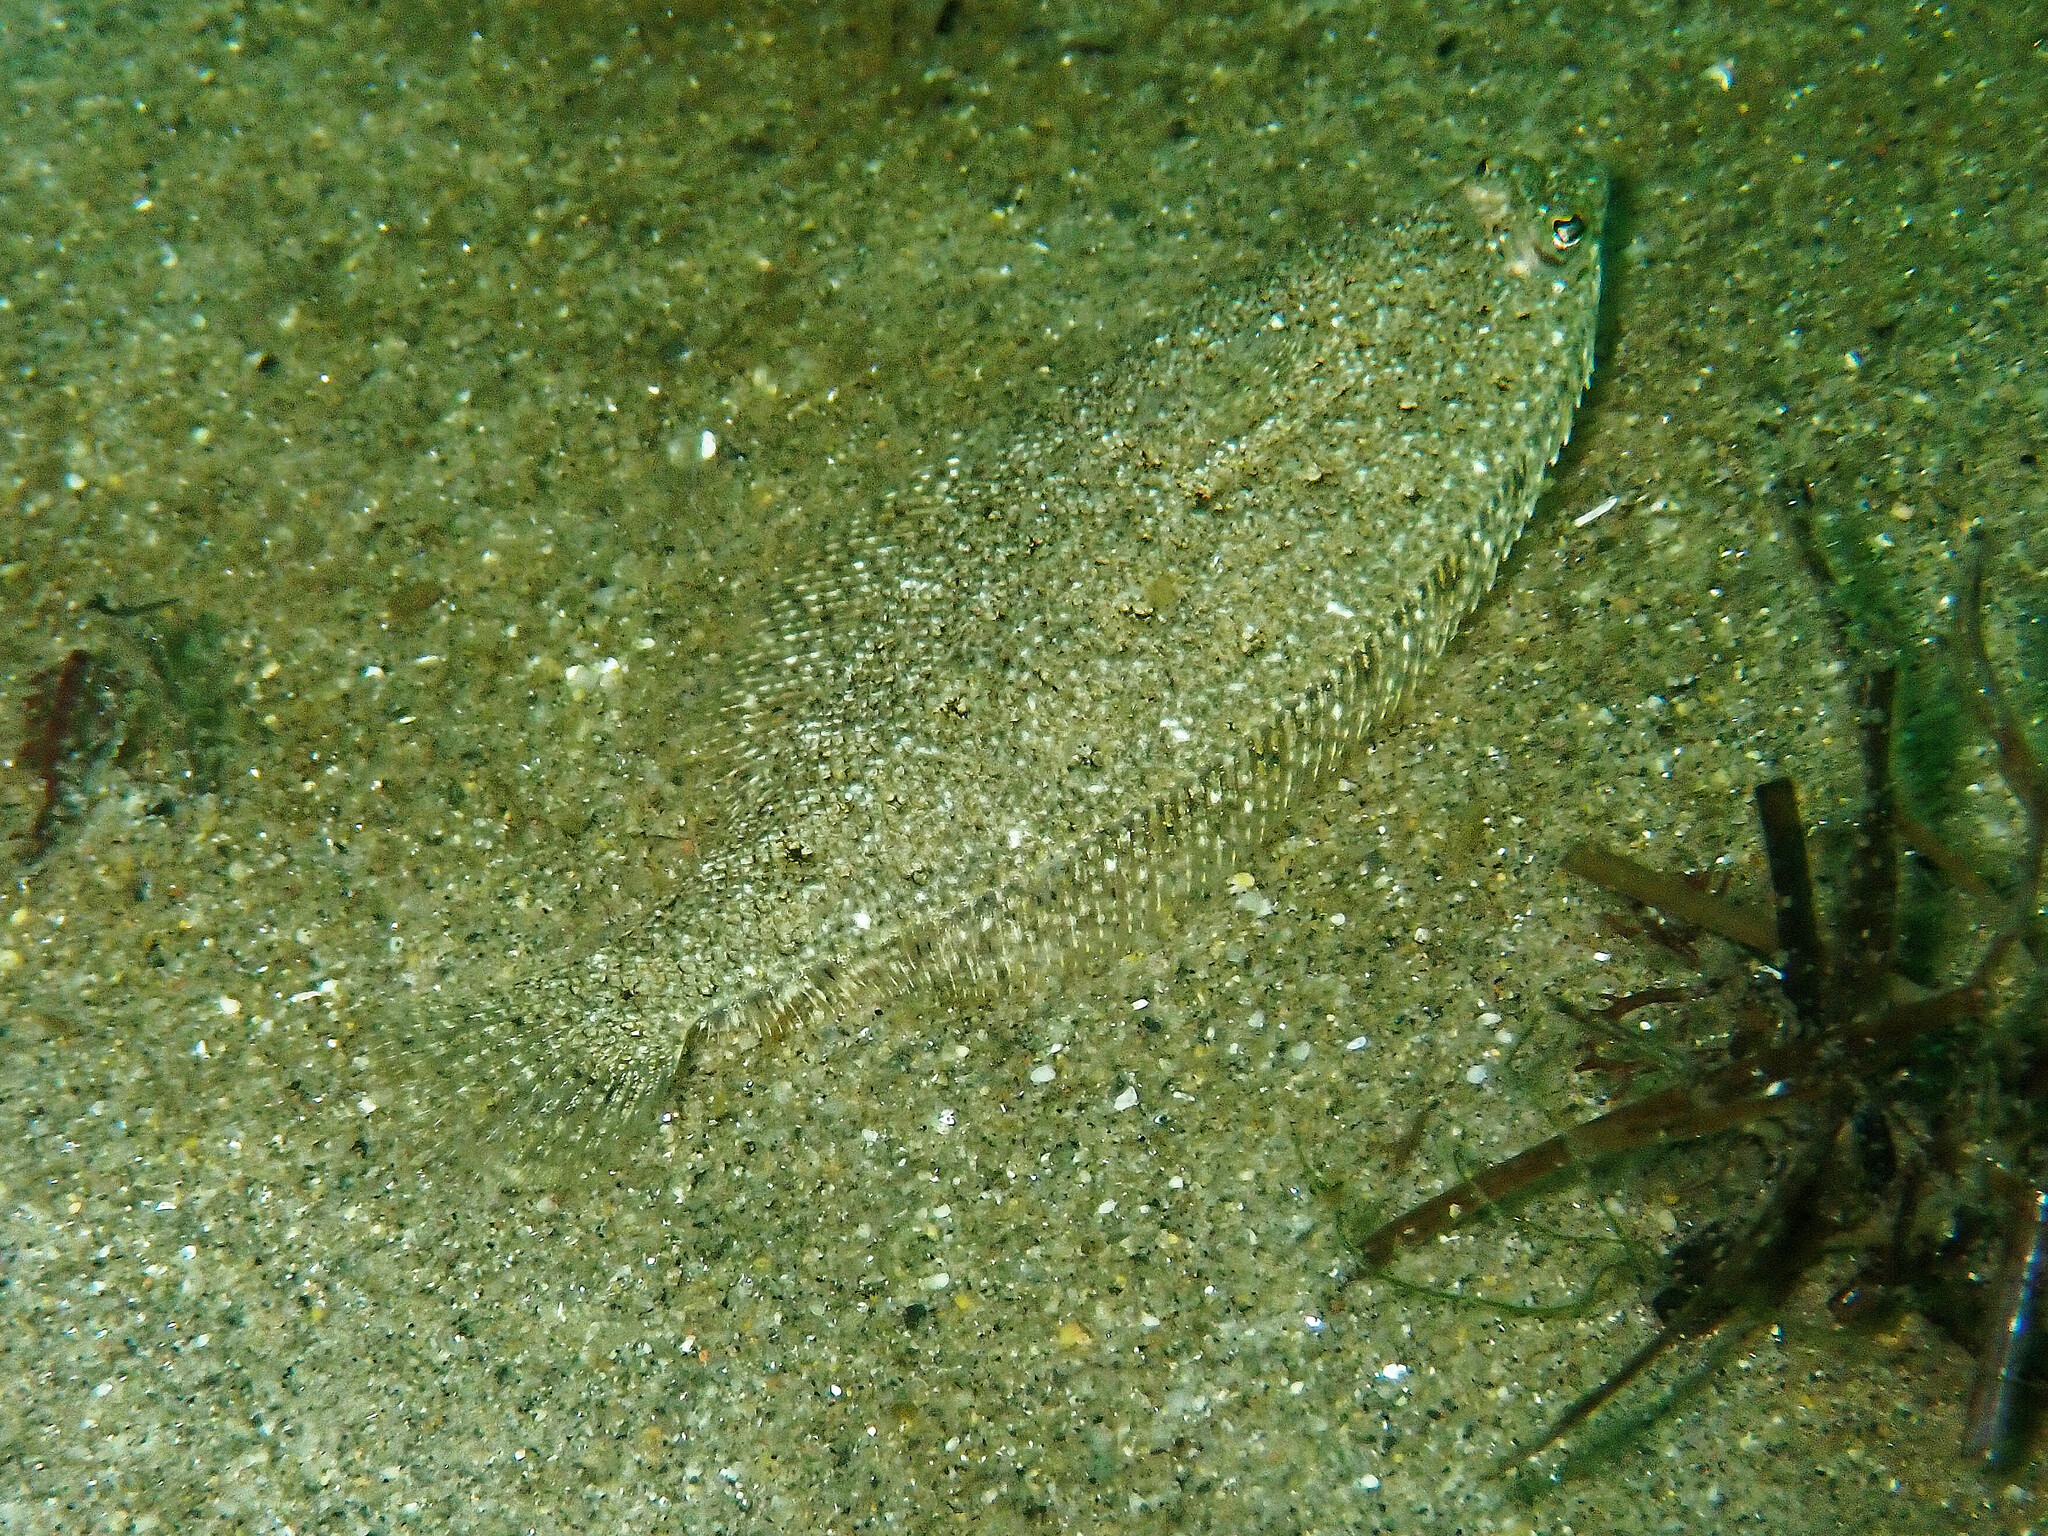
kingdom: Animalia
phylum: Chordata
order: Pleuronectiformes
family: Paralichthyidae
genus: Citharichthys
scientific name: Citharichthys stigmaeus
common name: Speckled sanddab
